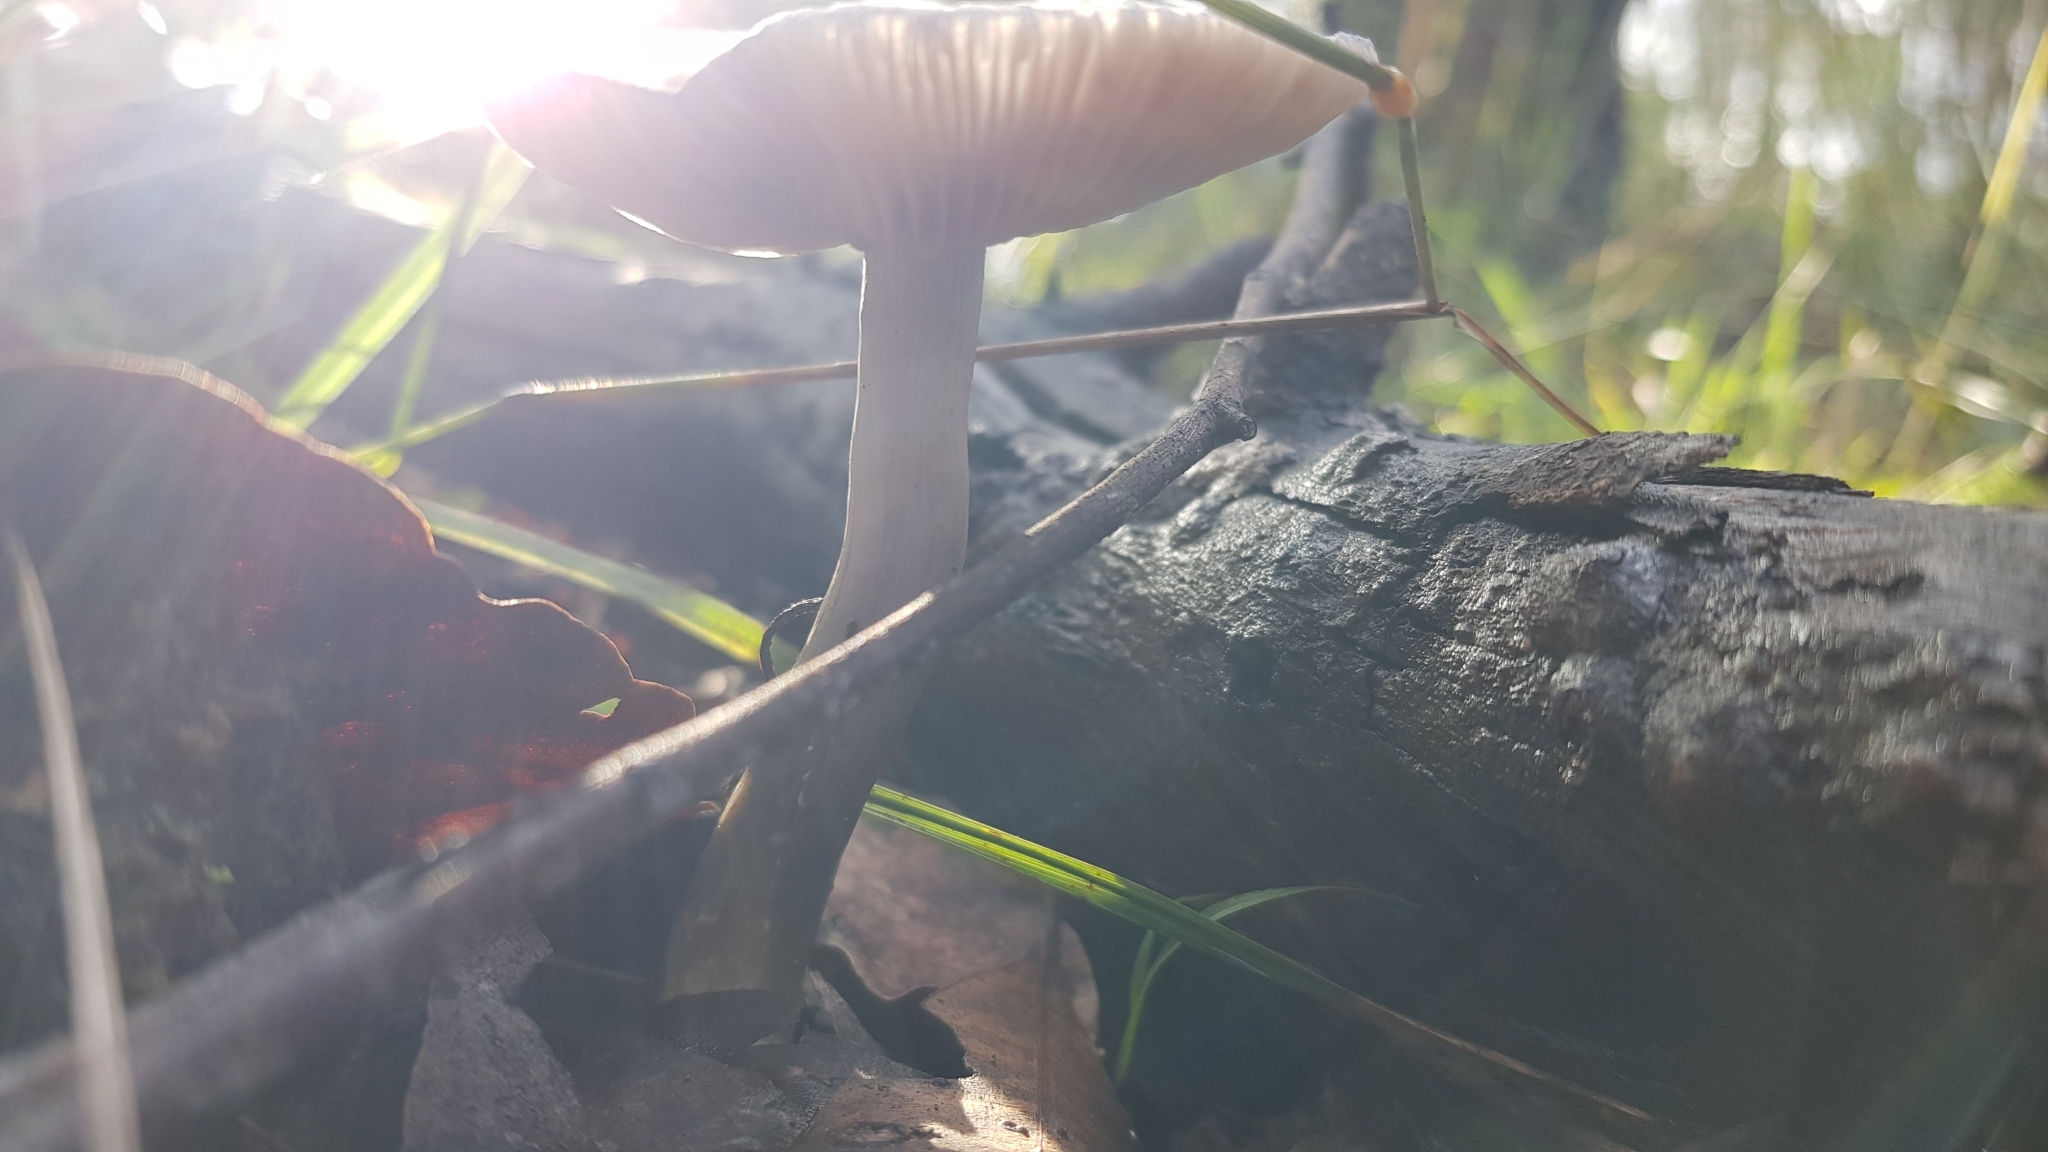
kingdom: Fungi
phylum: Basidiomycota
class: Agaricomycetes
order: Agaricales
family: Cortinariaceae
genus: Cortinarius
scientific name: Cortinarius rotundisporus
